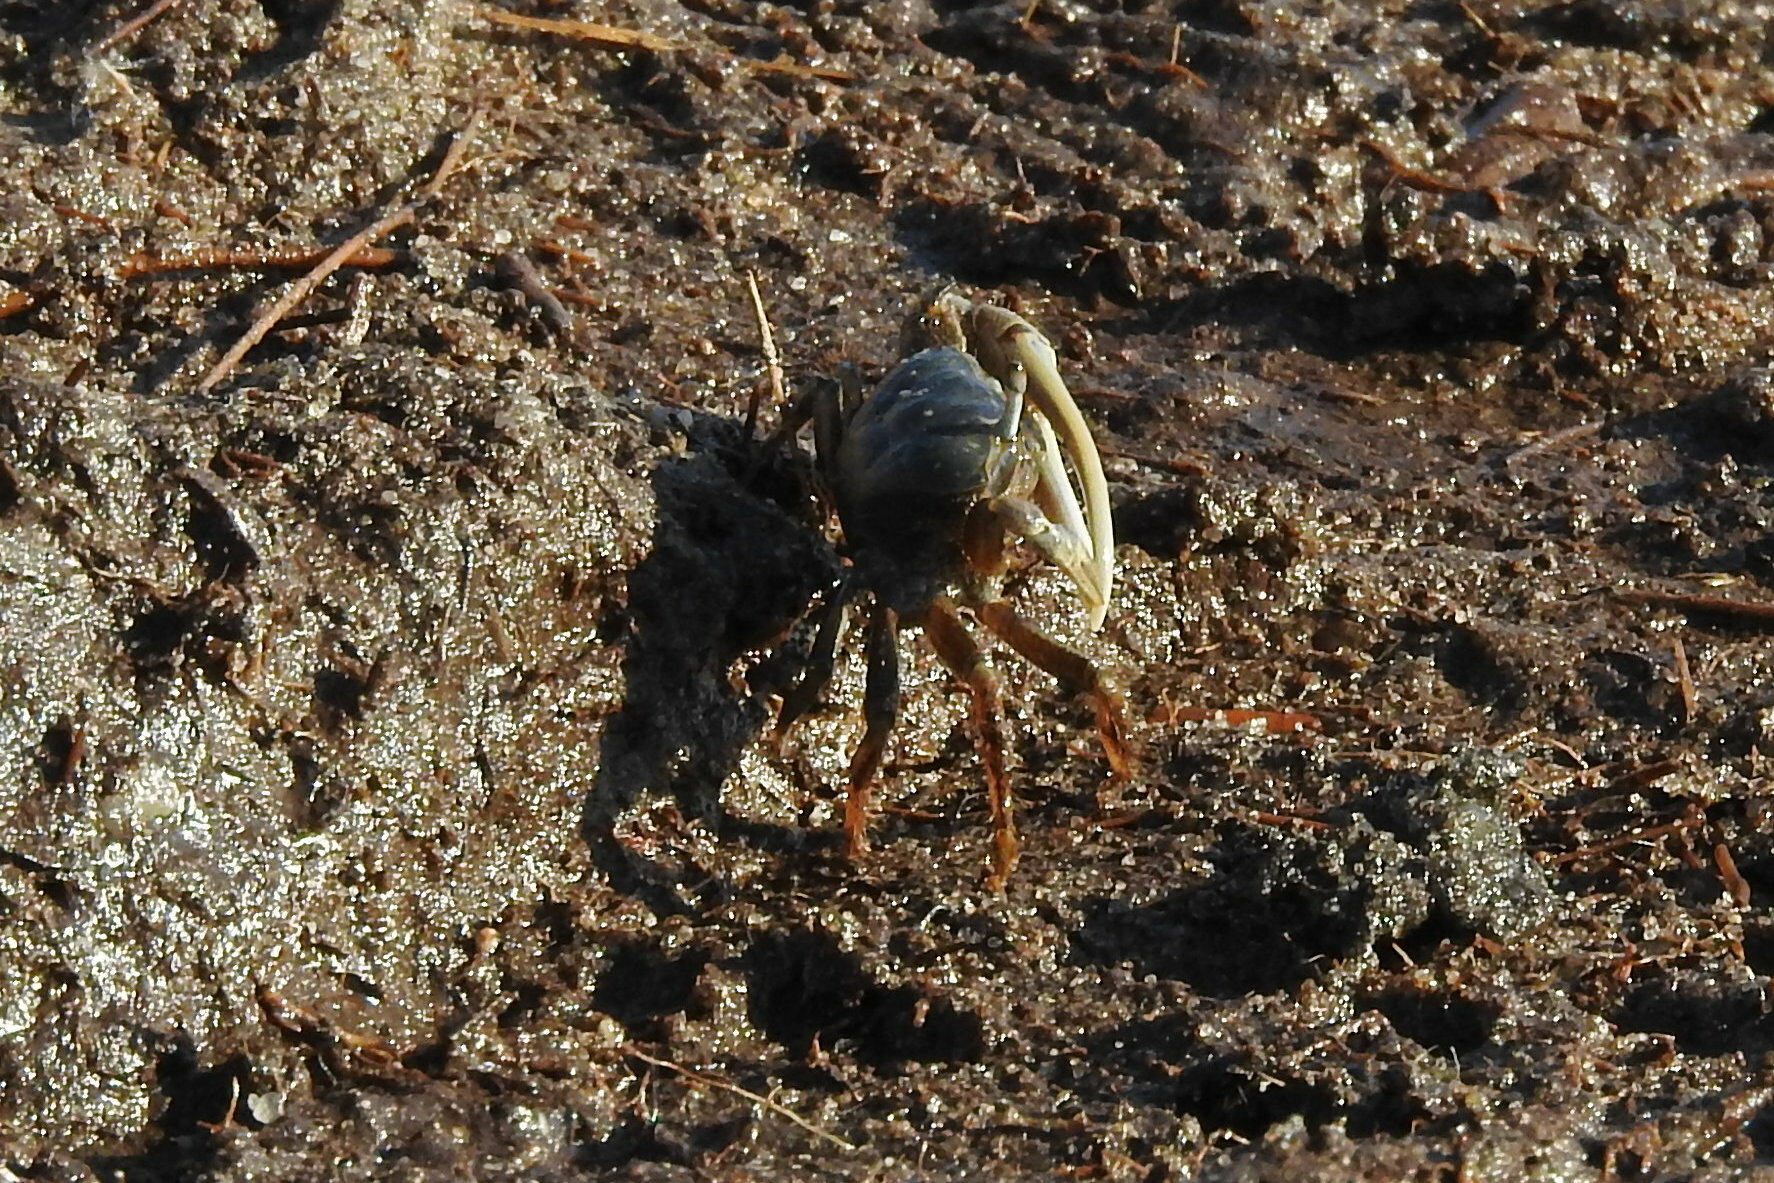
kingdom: Animalia
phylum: Arthropoda
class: Malacostraca
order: Decapoda
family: Ocypodidae
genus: Minuca
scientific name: Minuca pugnax
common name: Mud fiddler crab
